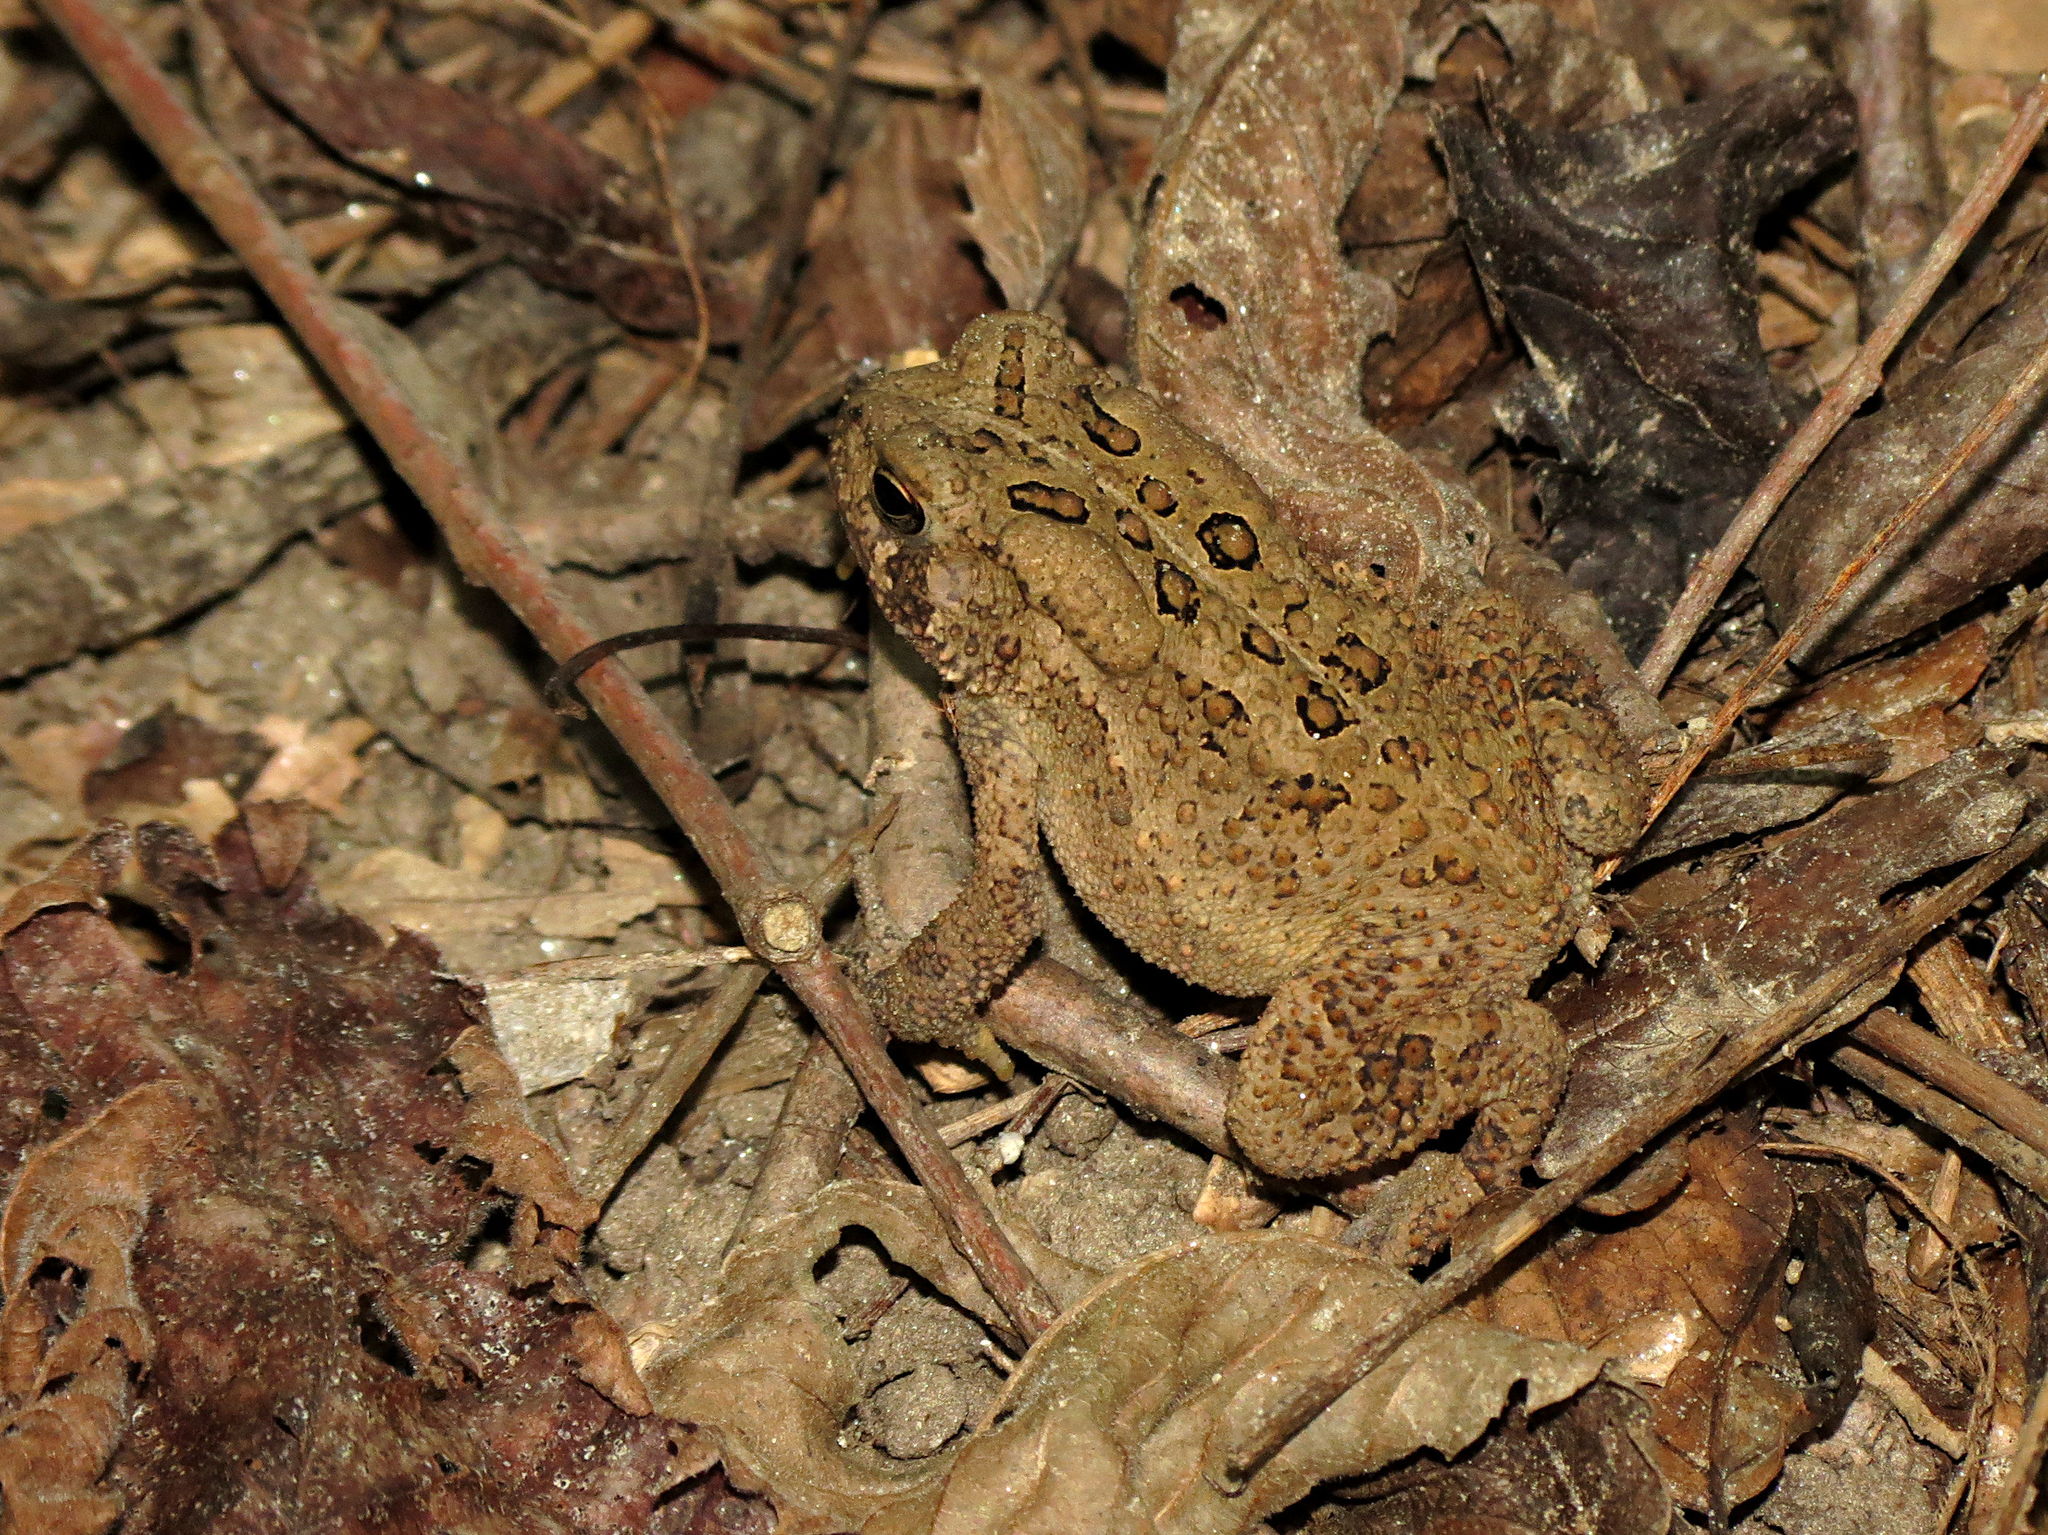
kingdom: Animalia
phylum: Chordata
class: Amphibia
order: Anura
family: Bufonidae
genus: Anaxyrus
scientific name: Anaxyrus americanus
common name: American toad
